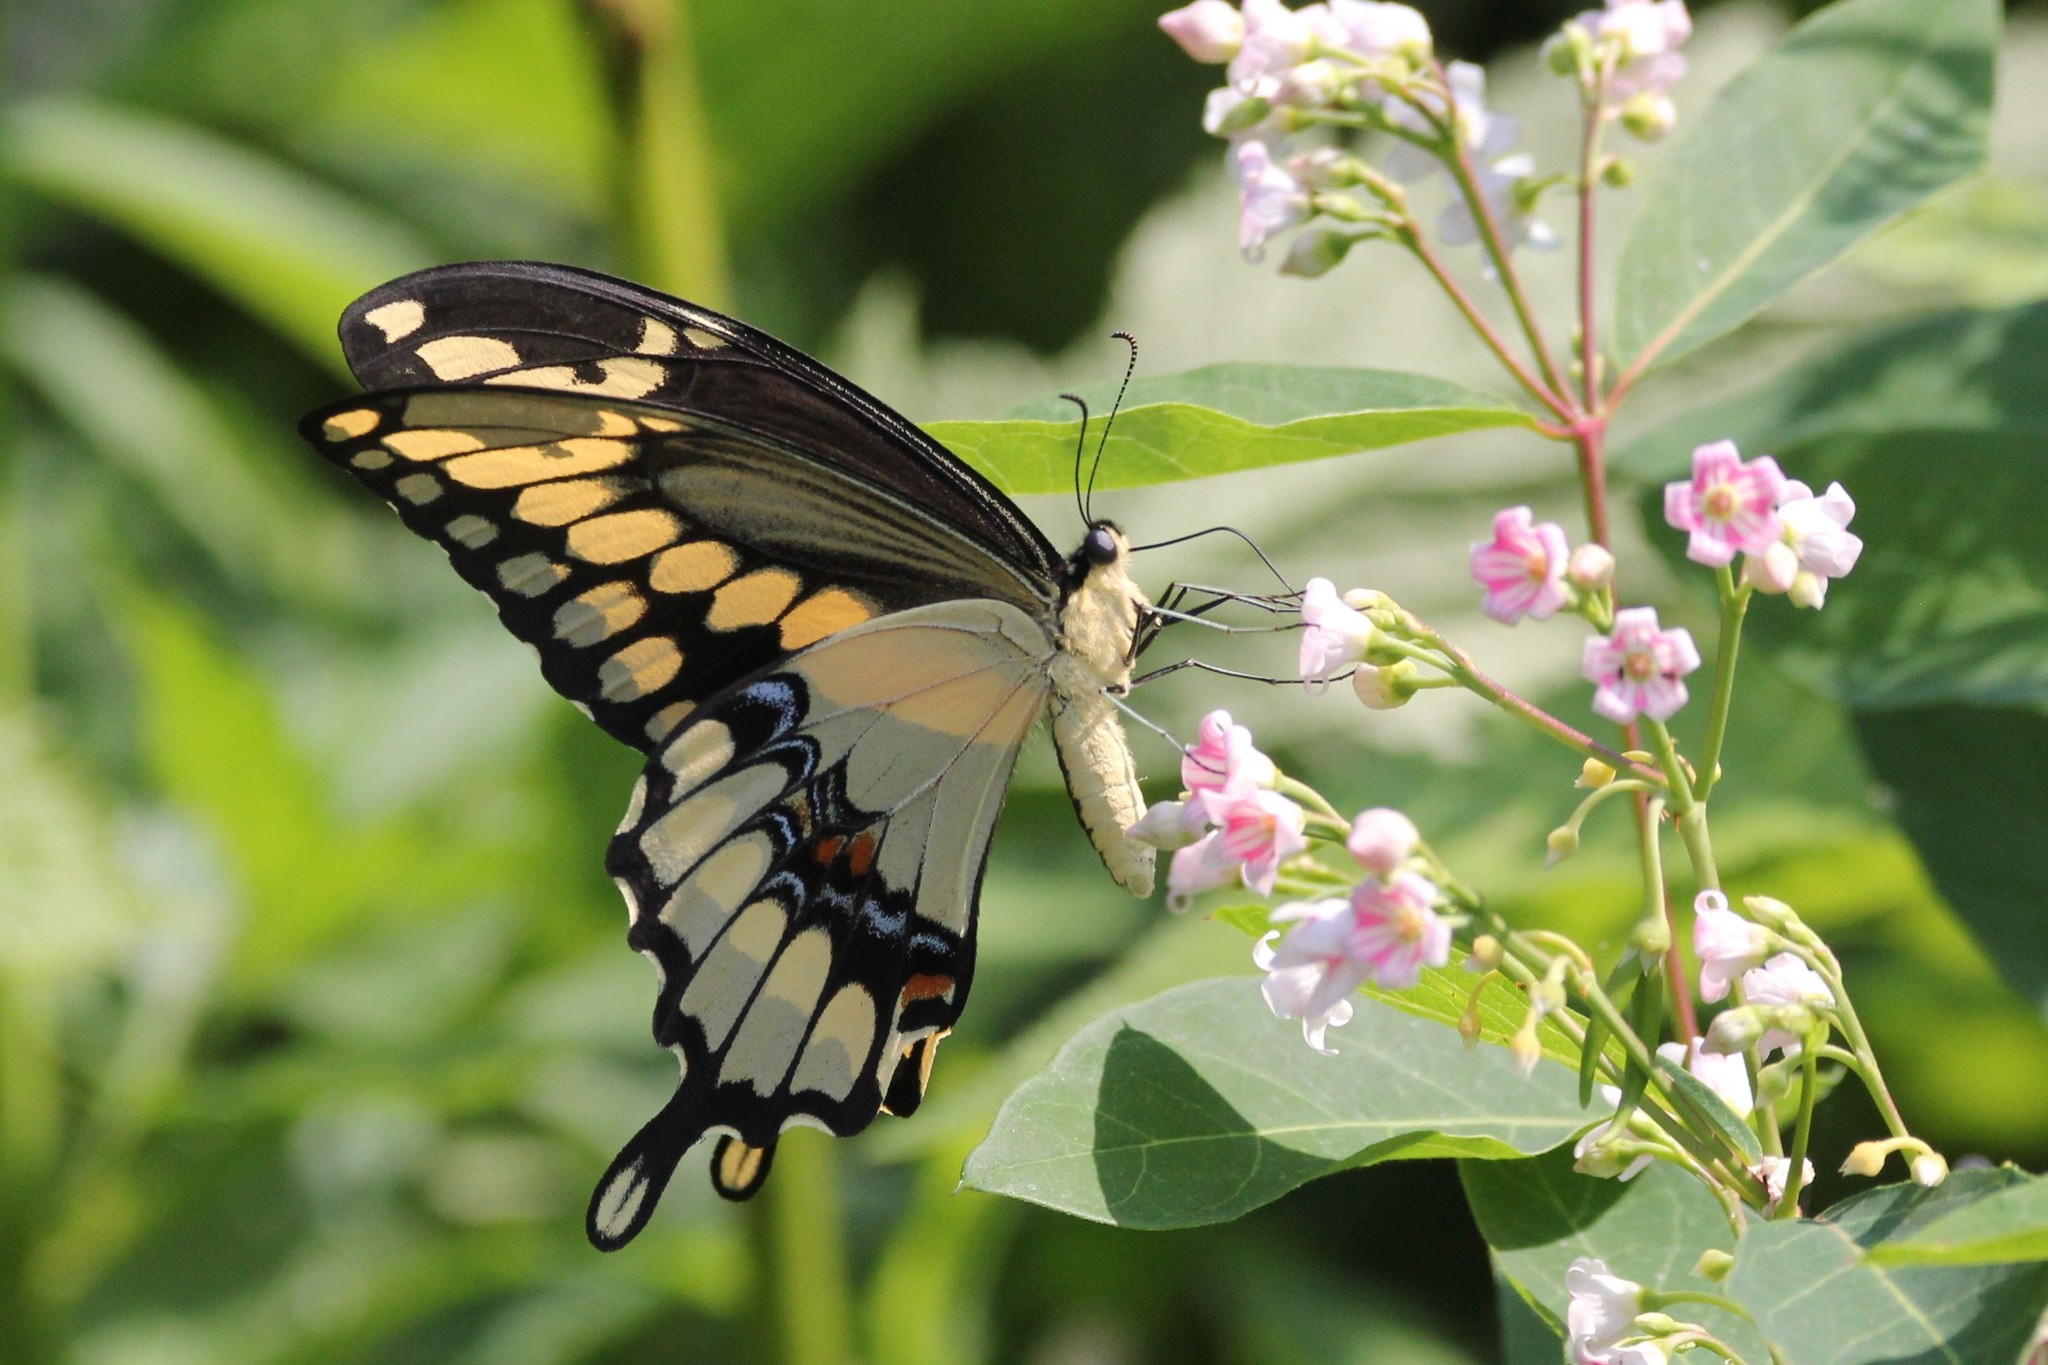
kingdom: Animalia
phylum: Arthropoda
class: Insecta
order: Lepidoptera
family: Papilionidae
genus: Papilio
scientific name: Papilio cresphontes
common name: Giant swallowtail
